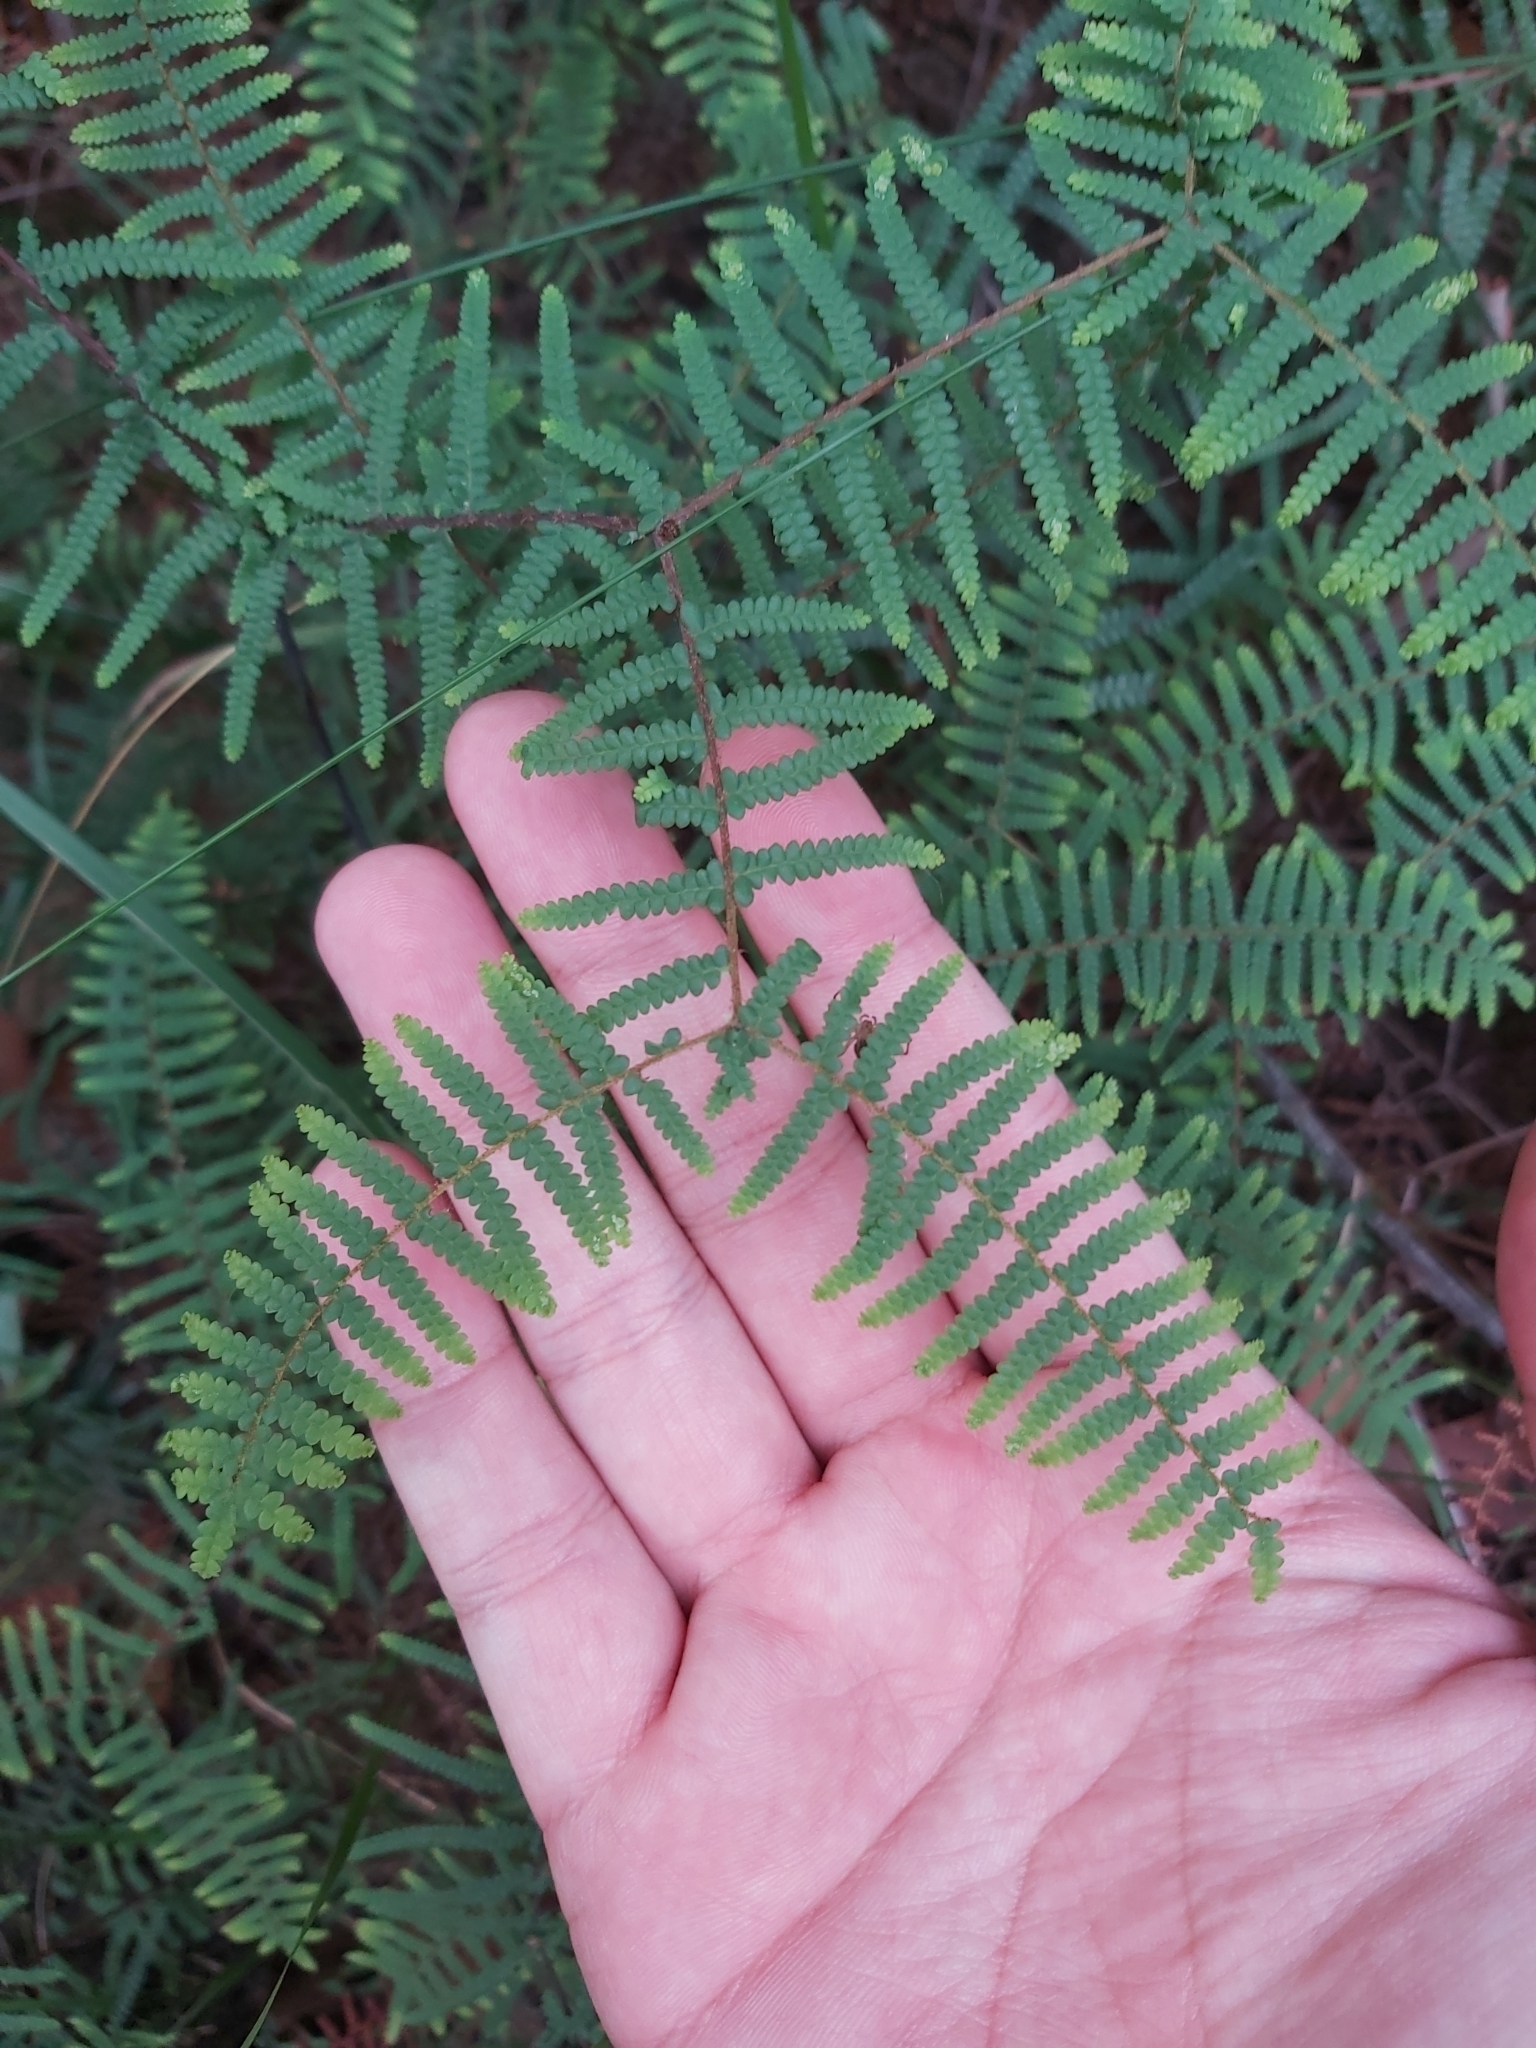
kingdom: Plantae
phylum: Tracheophyta
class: Polypodiopsida
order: Gleicheniales
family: Gleicheniaceae
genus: Gleichenia
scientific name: Gleichenia microphylla
